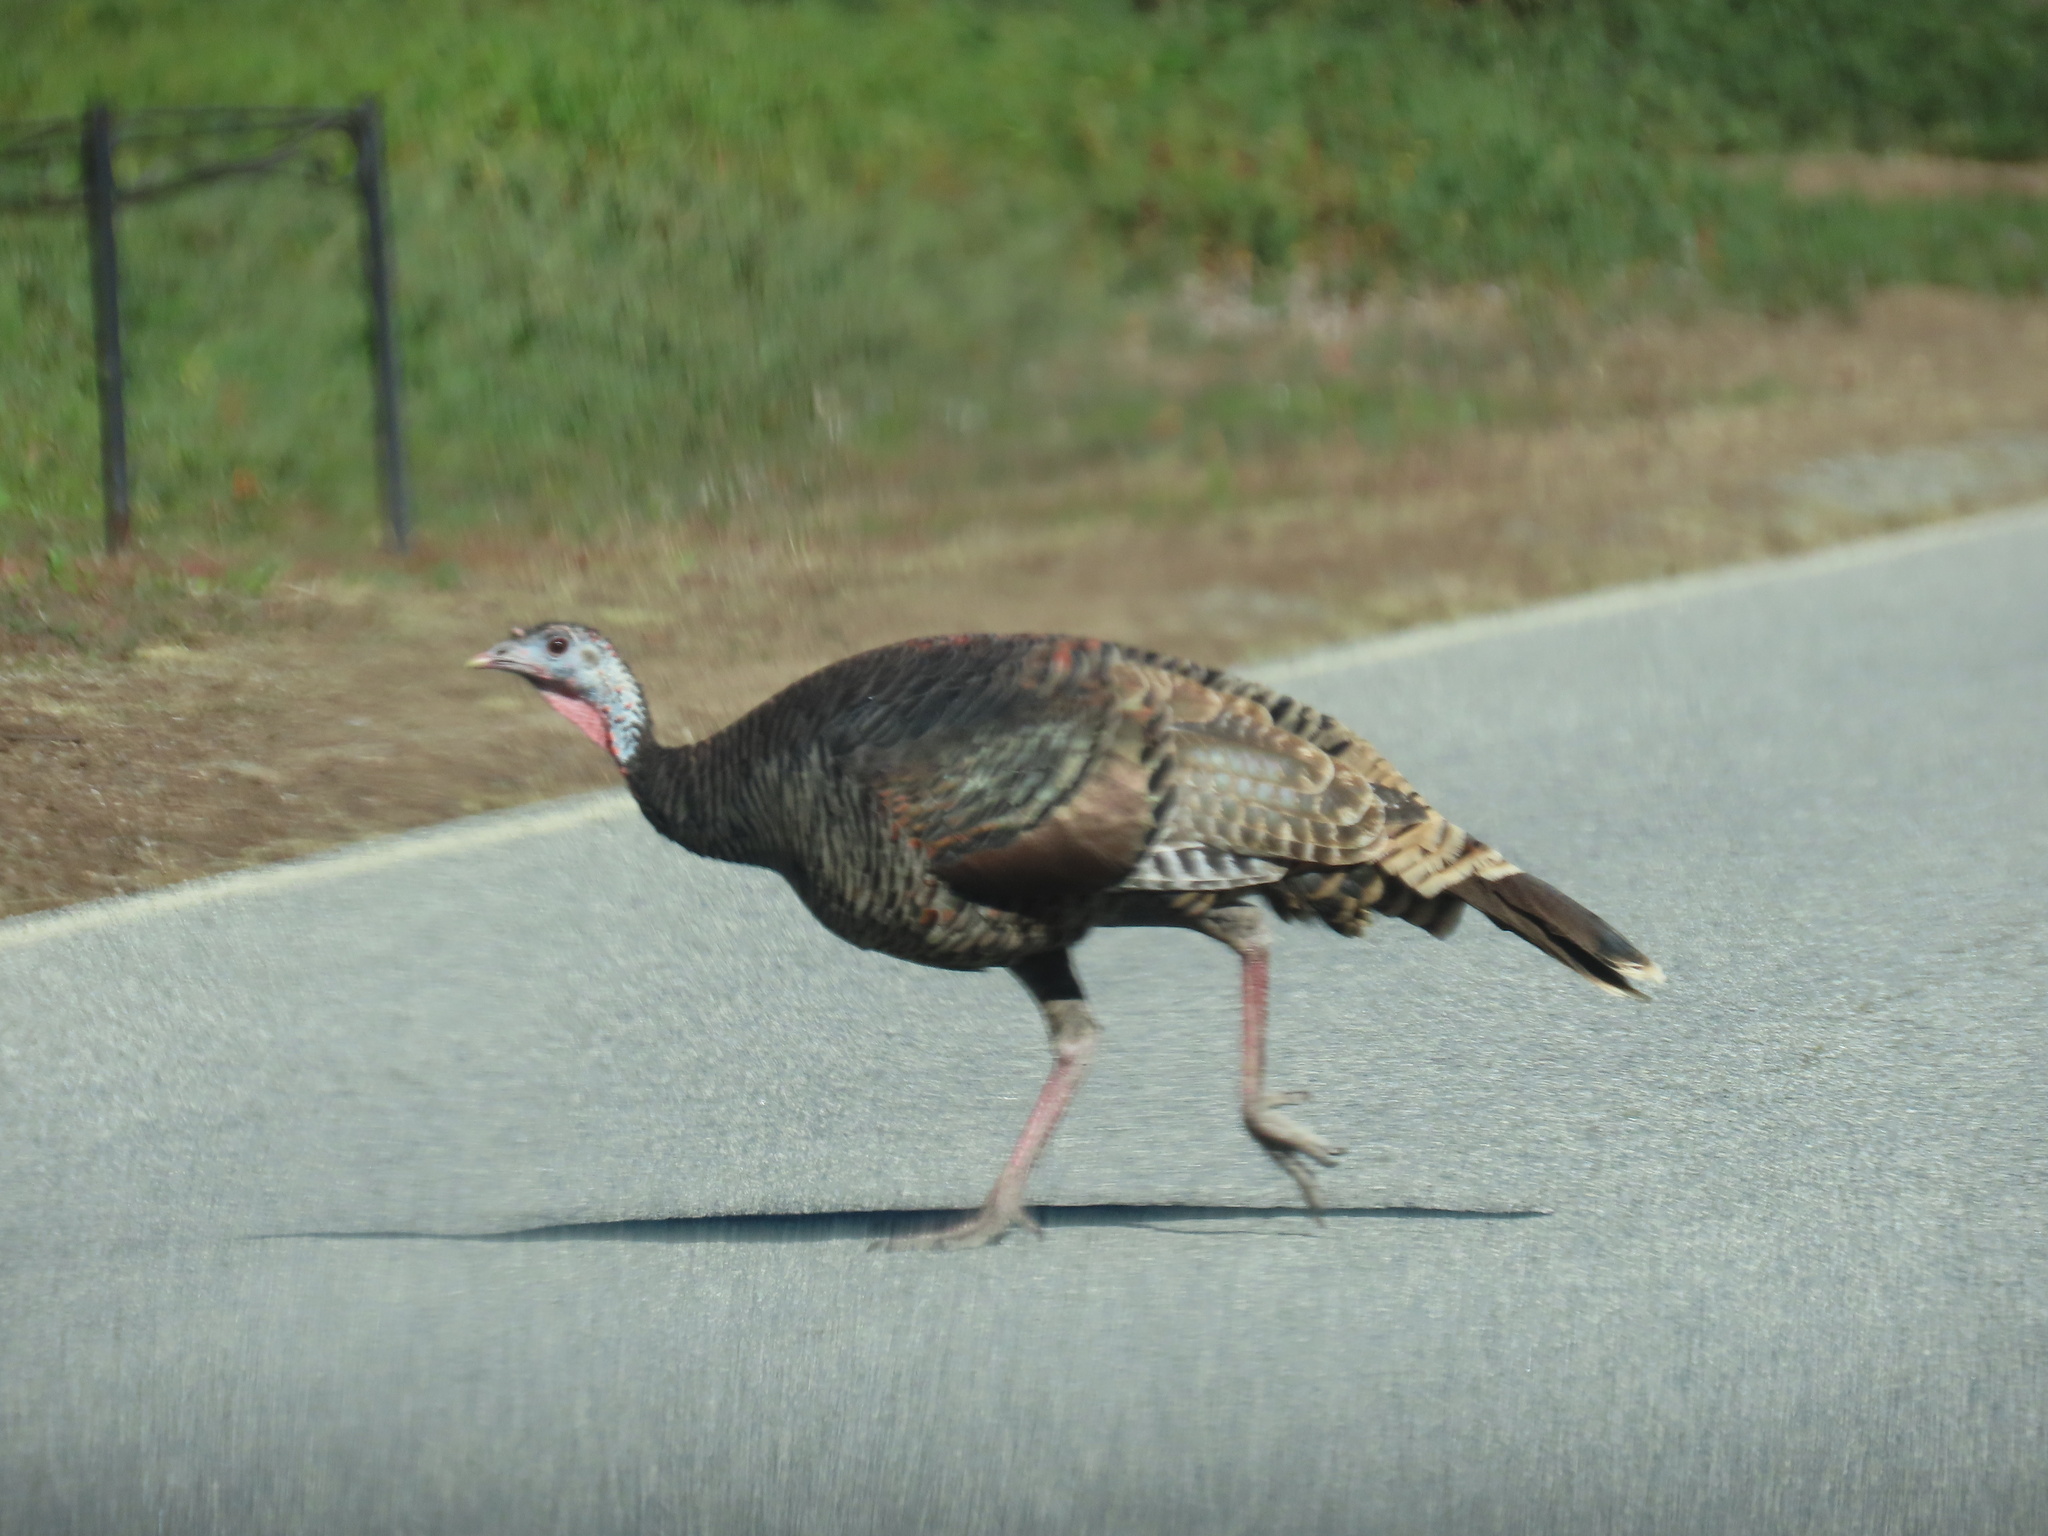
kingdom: Animalia
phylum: Chordata
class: Aves
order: Galliformes
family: Phasianidae
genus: Meleagris
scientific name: Meleagris gallopavo
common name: Wild turkey
